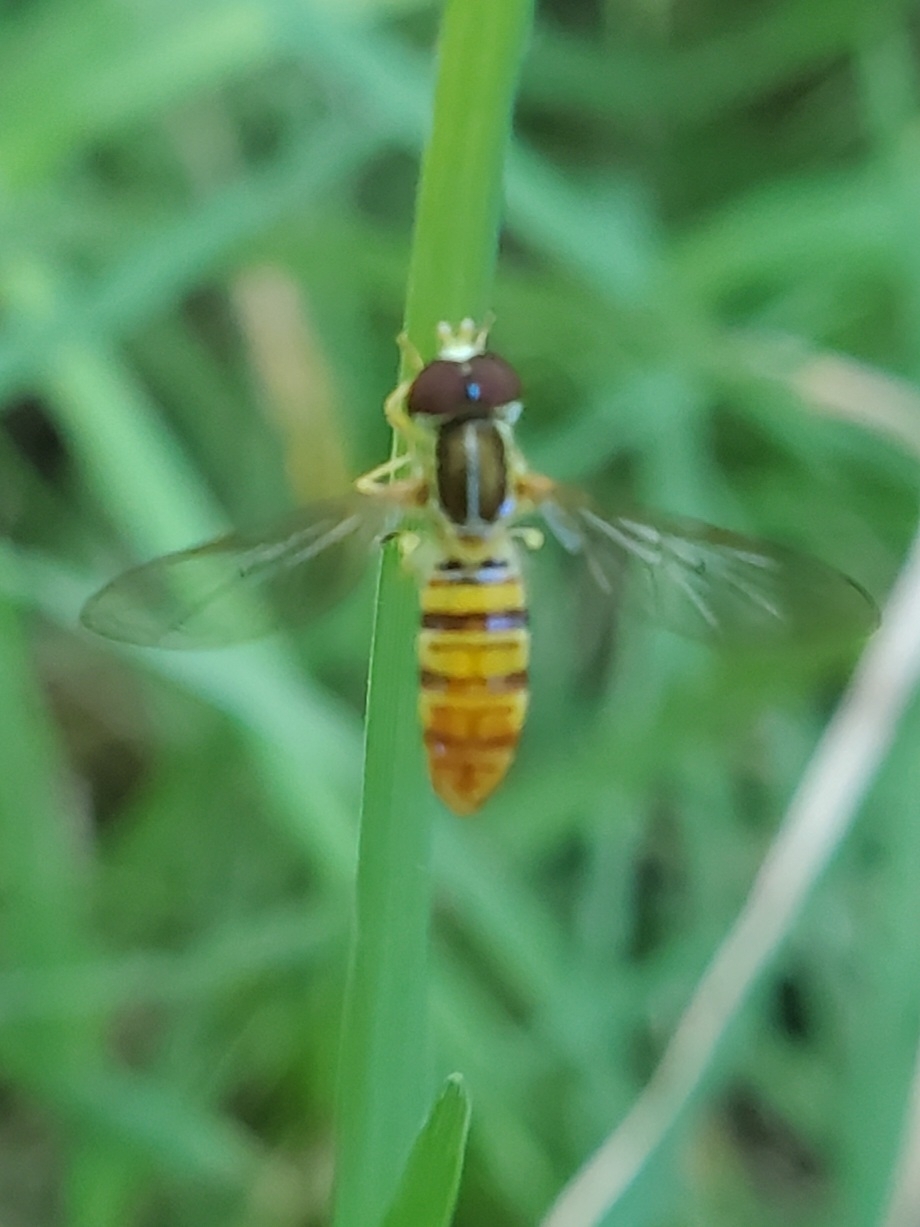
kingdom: Animalia
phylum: Arthropoda
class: Insecta
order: Diptera
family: Syrphidae
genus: Toxomerus
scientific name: Toxomerus politus
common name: Maize calligrapher
